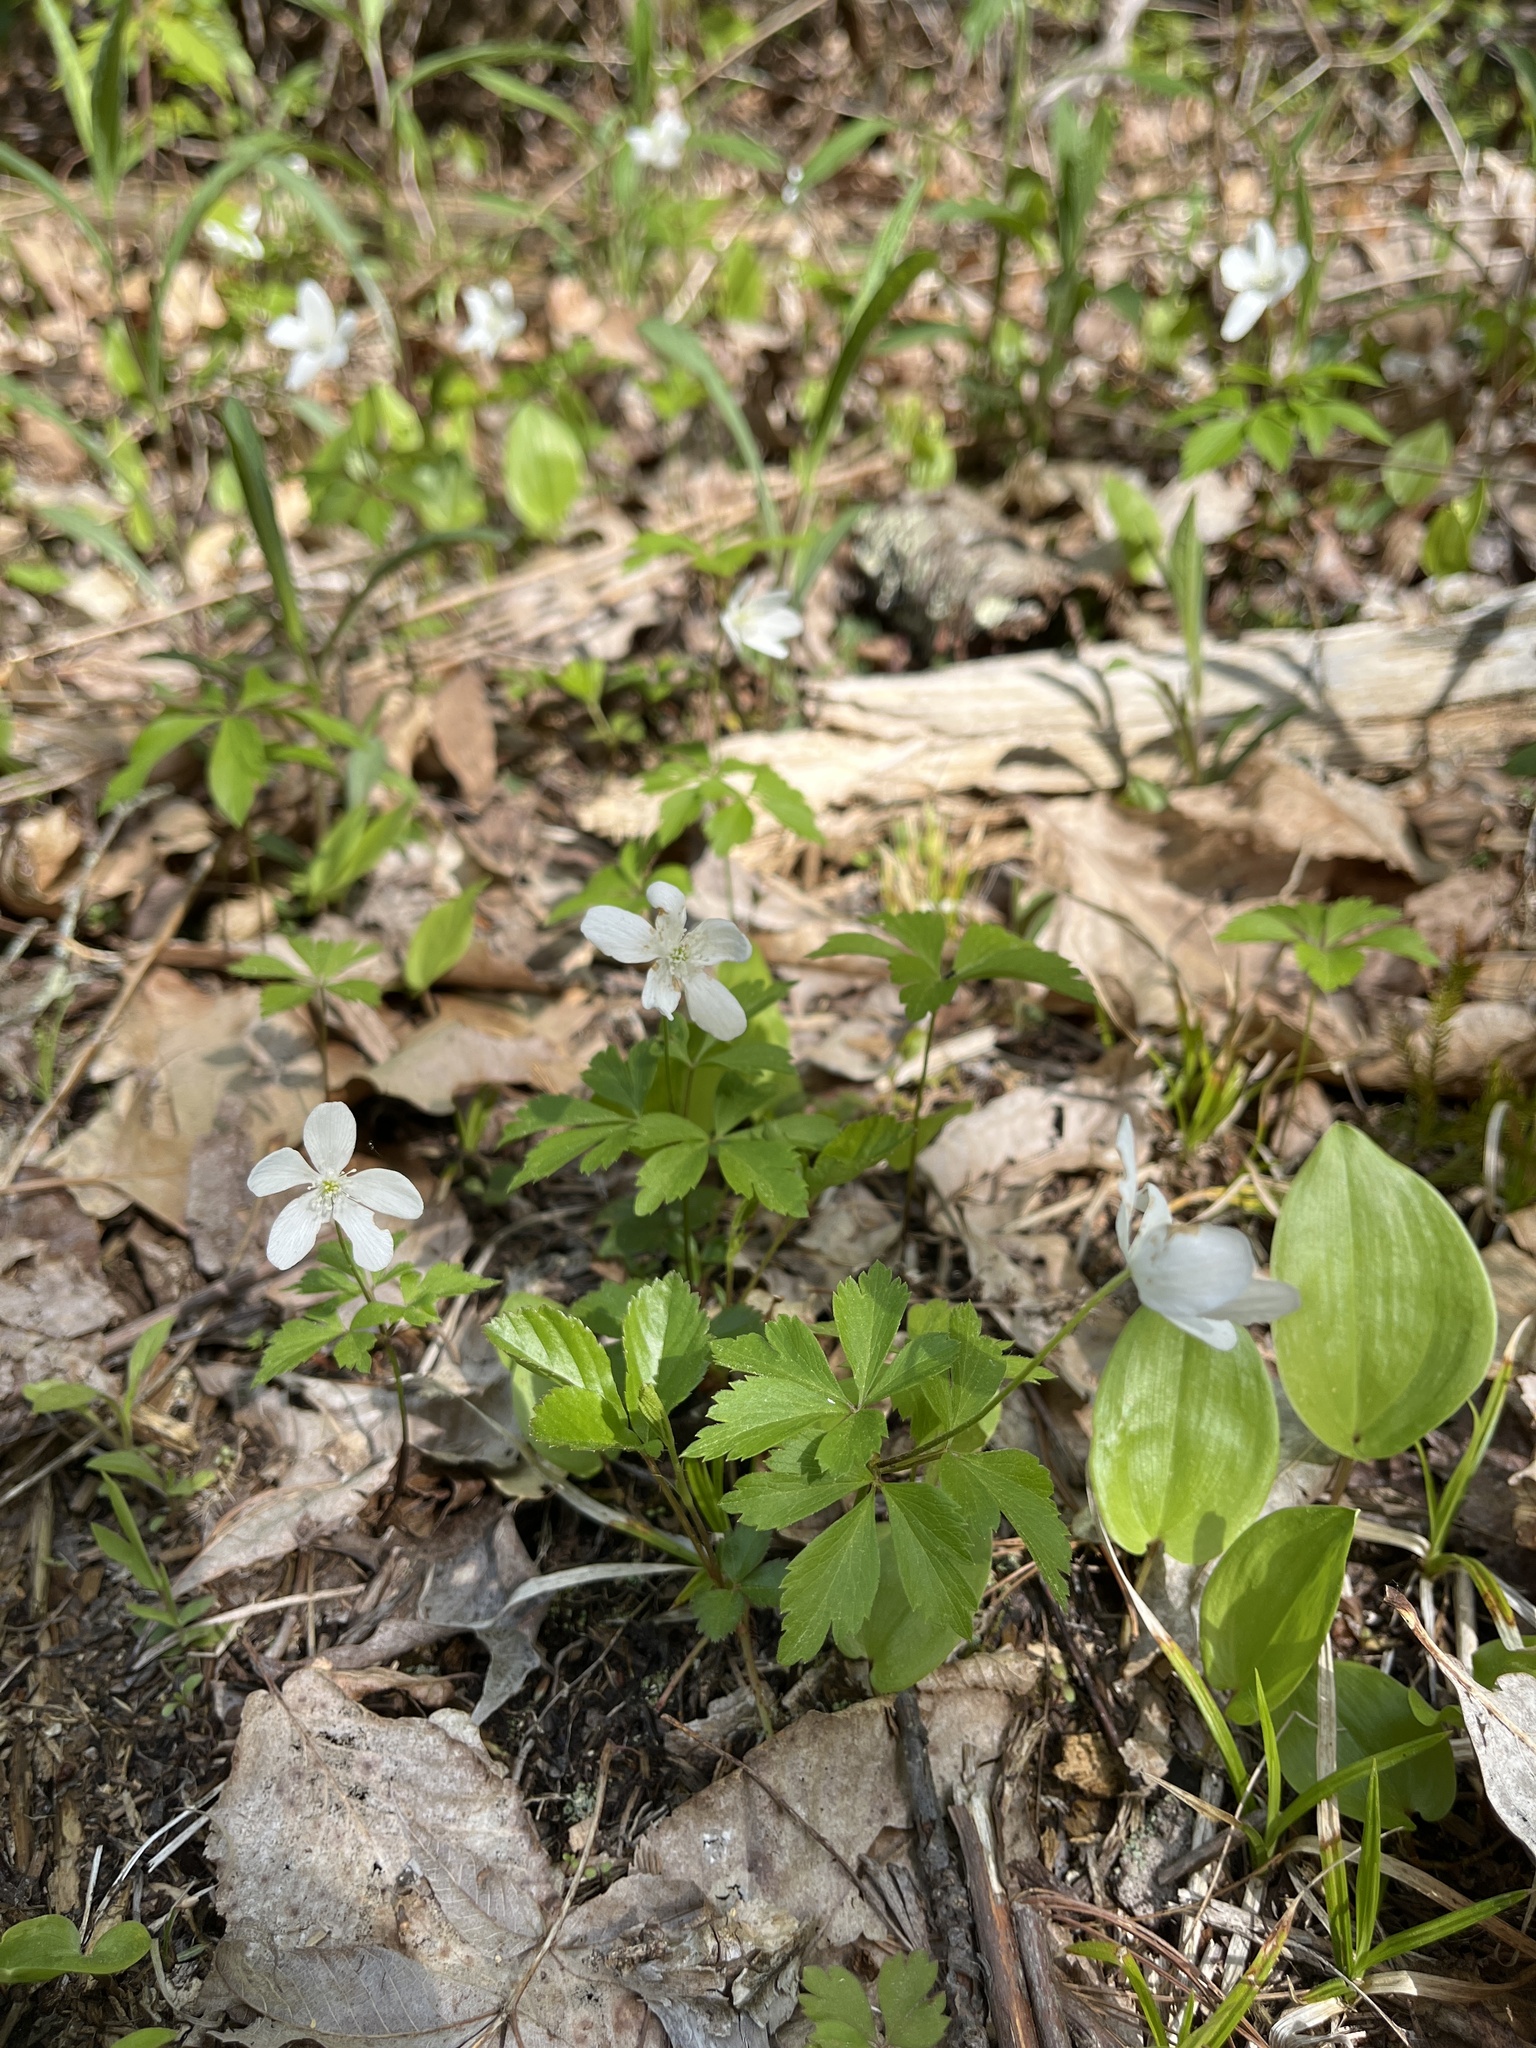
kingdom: Plantae
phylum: Tracheophyta
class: Magnoliopsida
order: Ranunculales
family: Ranunculaceae
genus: Anemone
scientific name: Anemone quinquefolia
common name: Wood anemone
